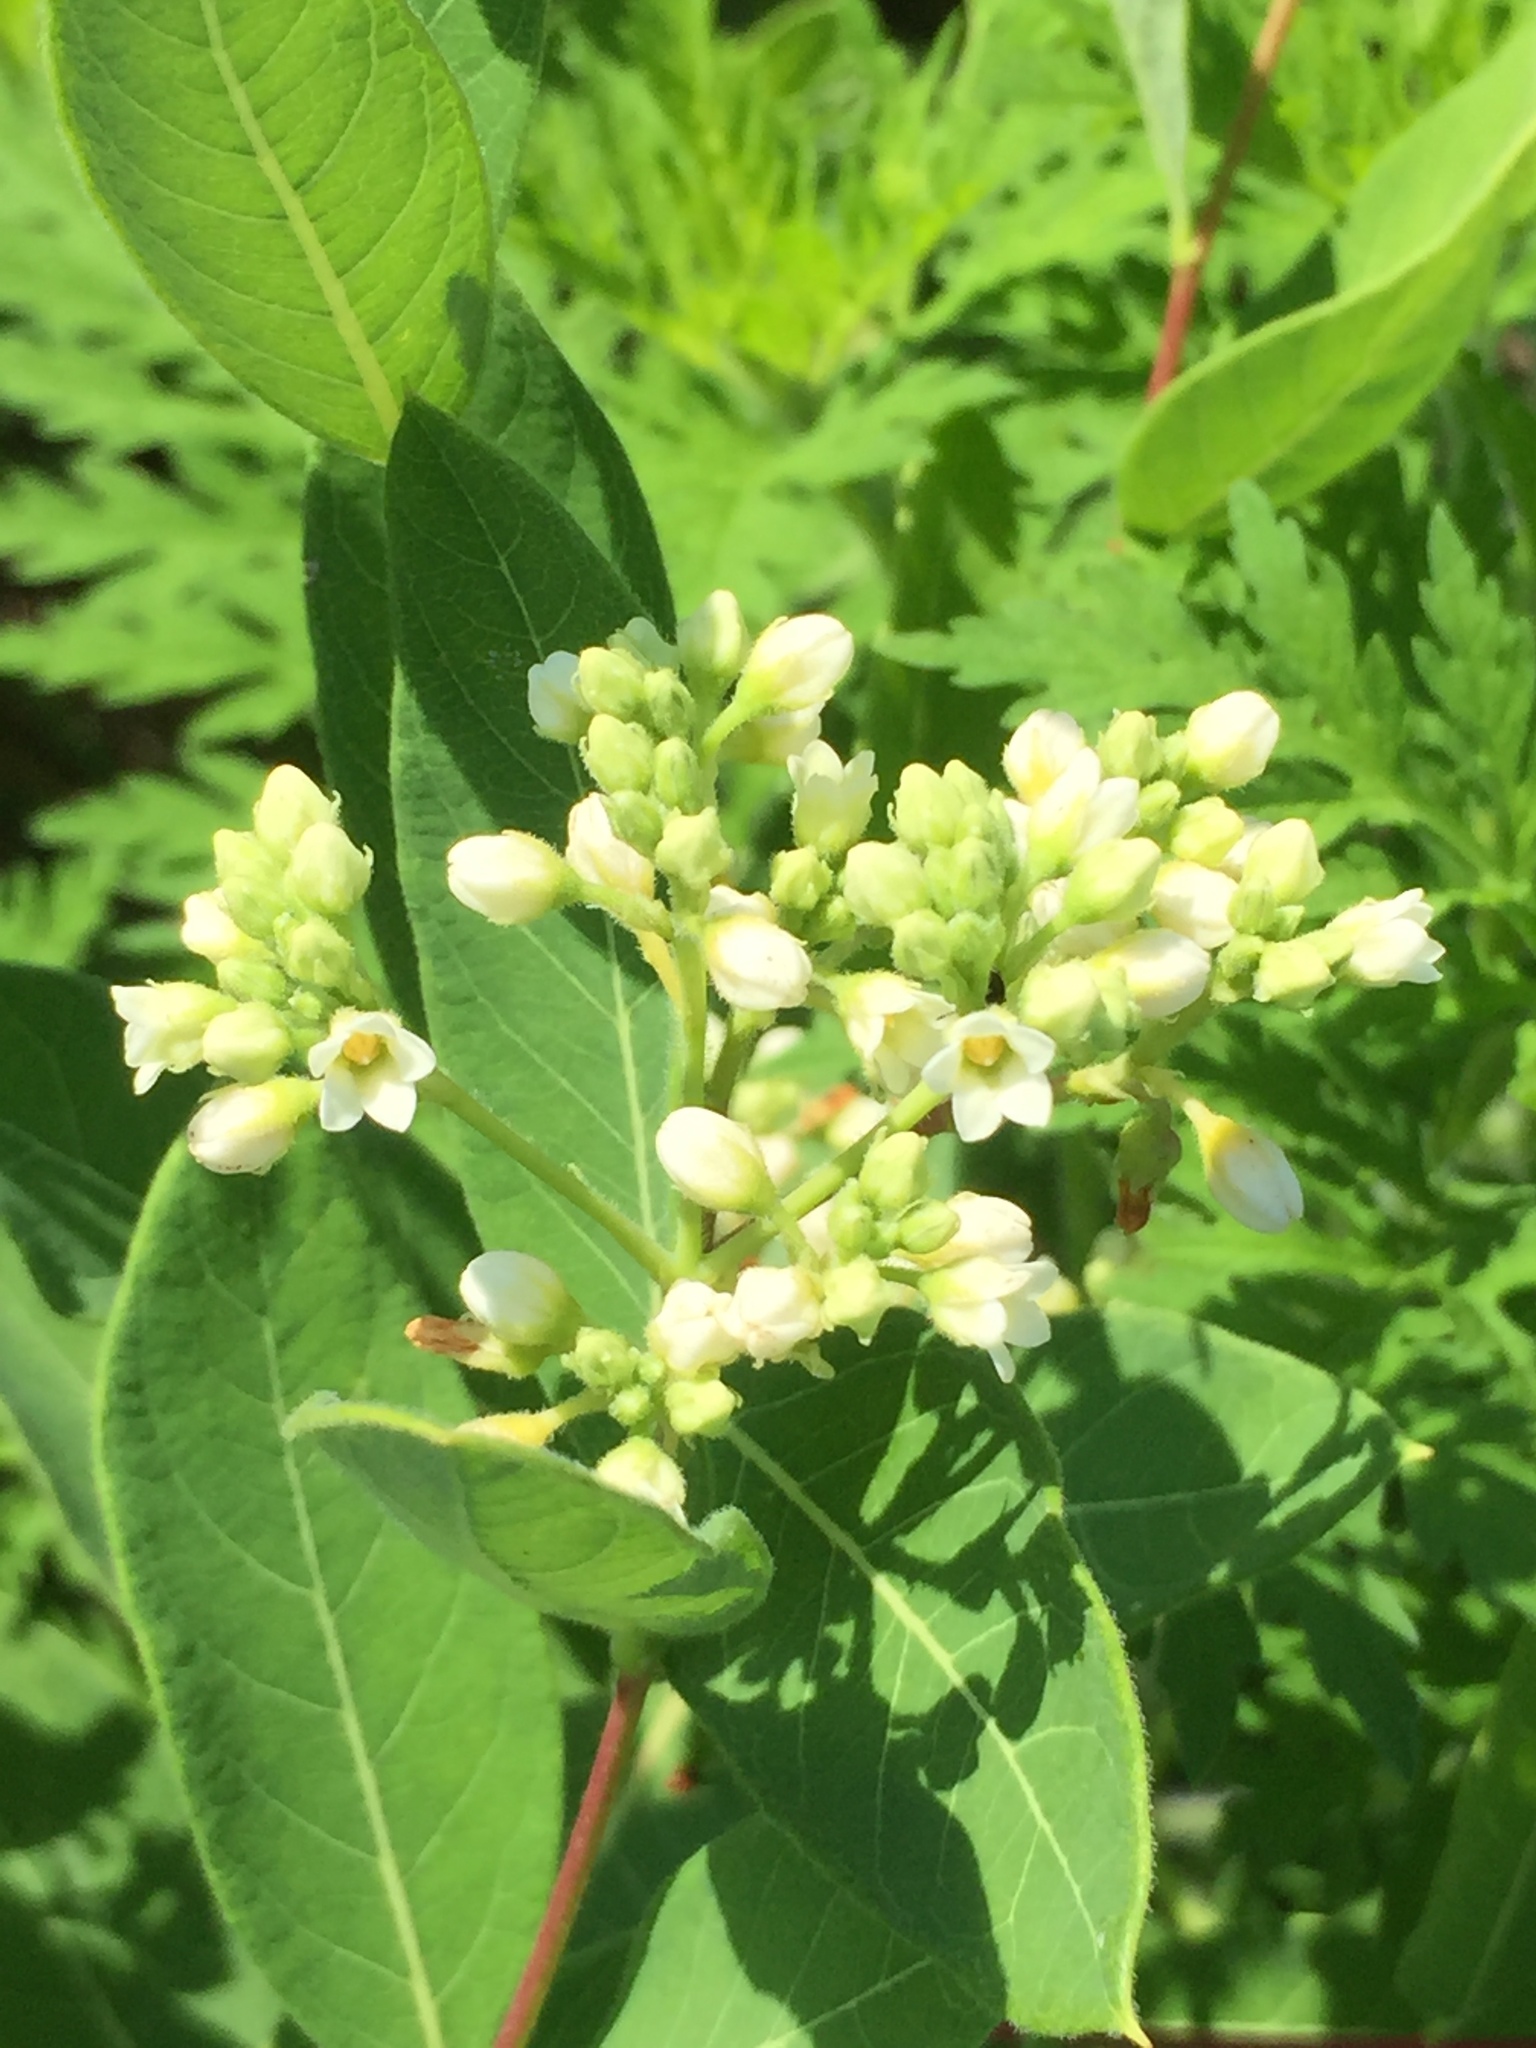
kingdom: Plantae
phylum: Tracheophyta
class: Magnoliopsida
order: Gentianales
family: Apocynaceae
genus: Apocynum
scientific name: Apocynum cannabinum
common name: Hemp dogbane
